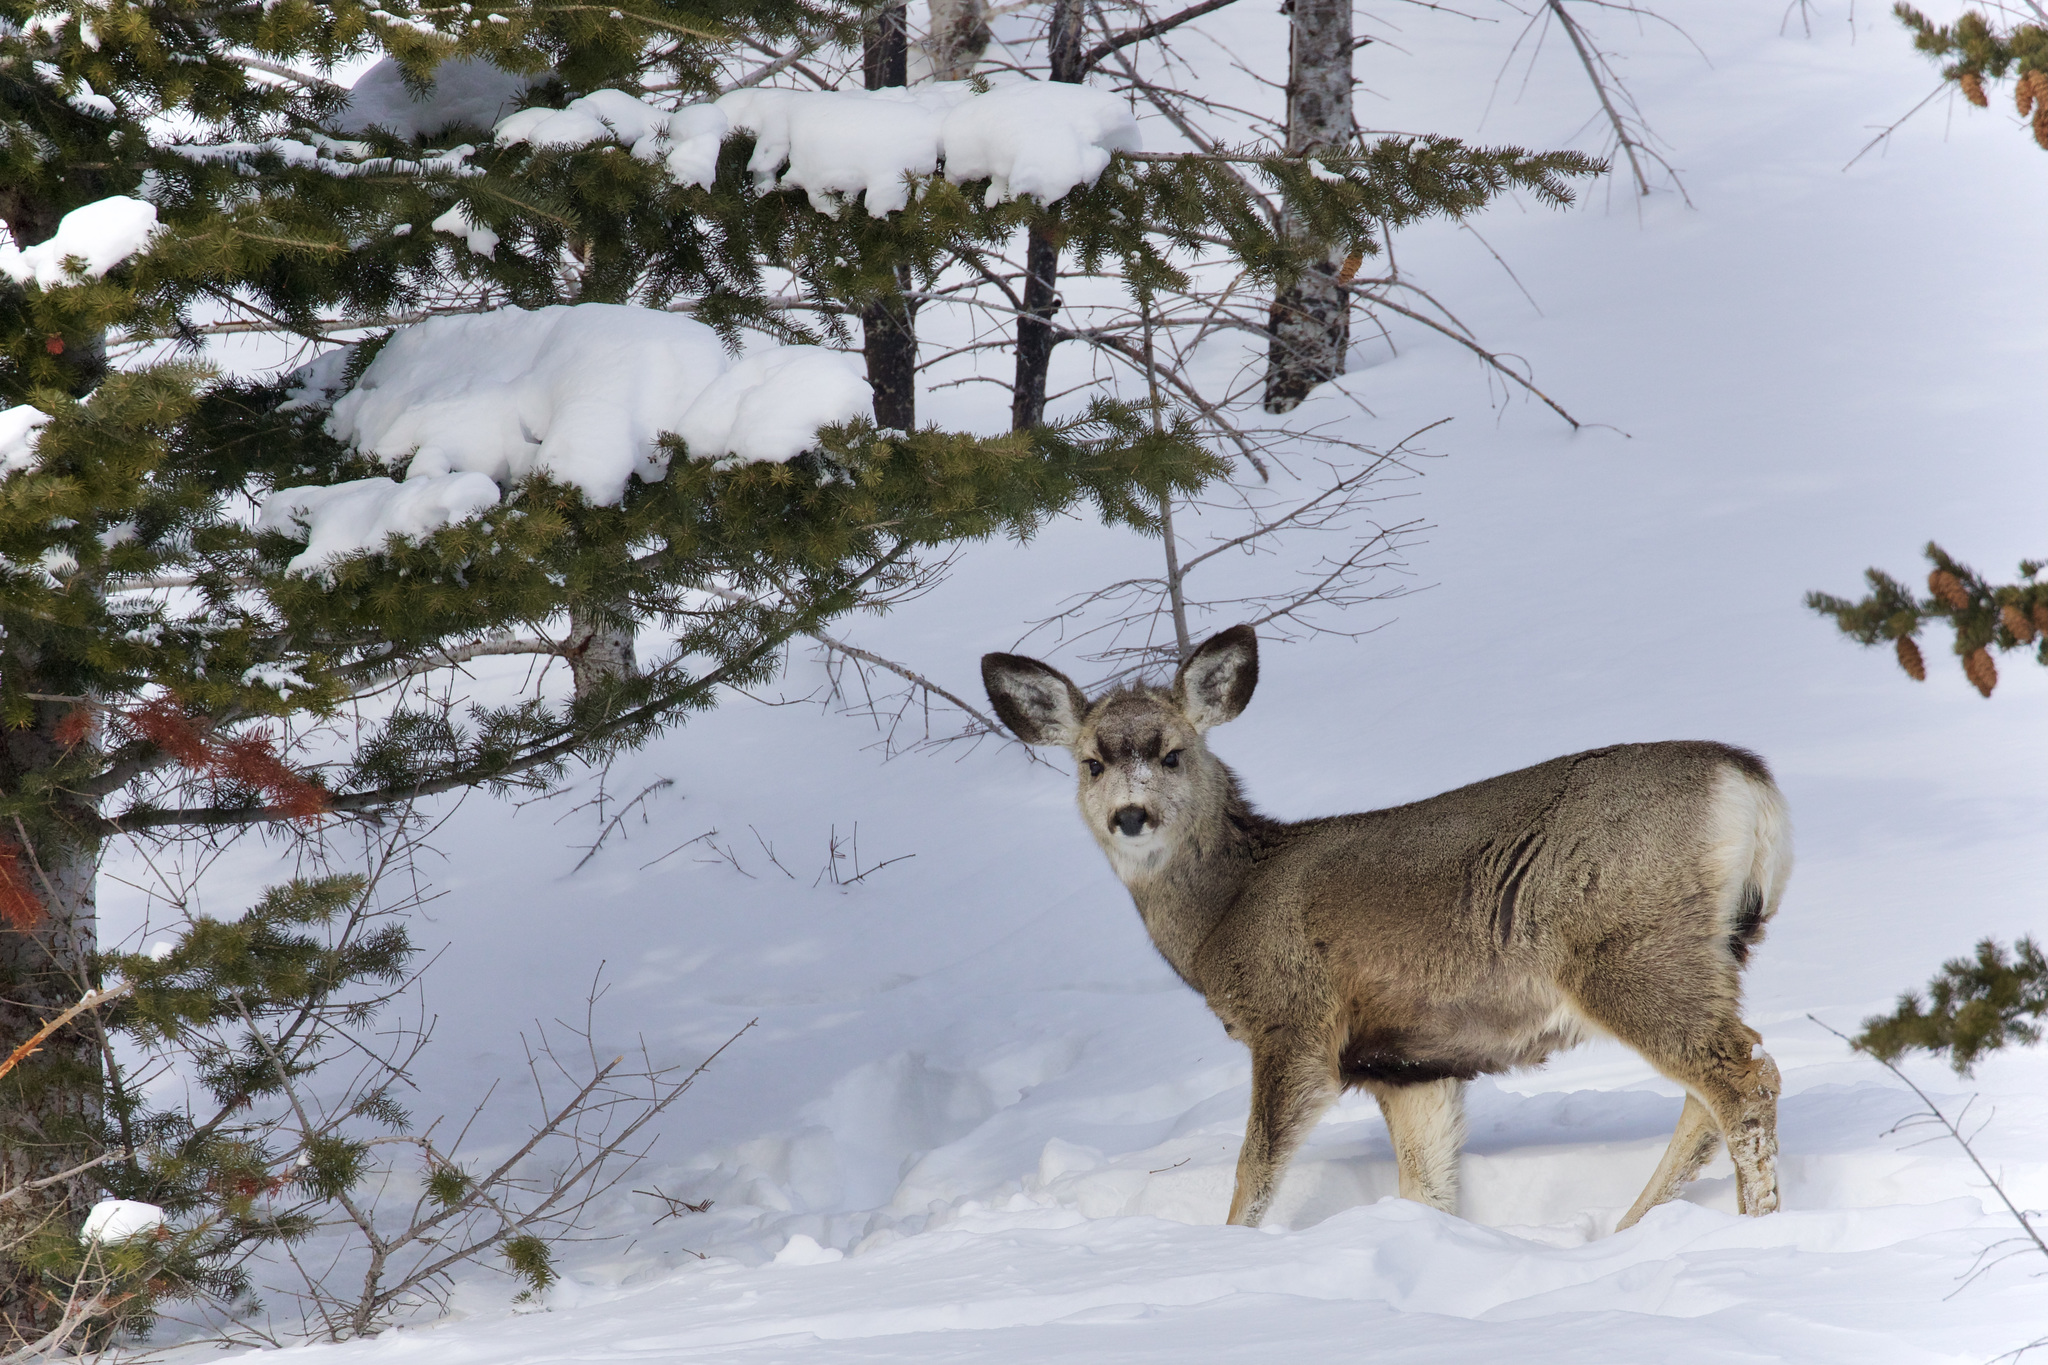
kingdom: Animalia
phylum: Chordata
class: Mammalia
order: Artiodactyla
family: Cervidae
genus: Odocoileus
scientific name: Odocoileus hemionus
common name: Mule deer
